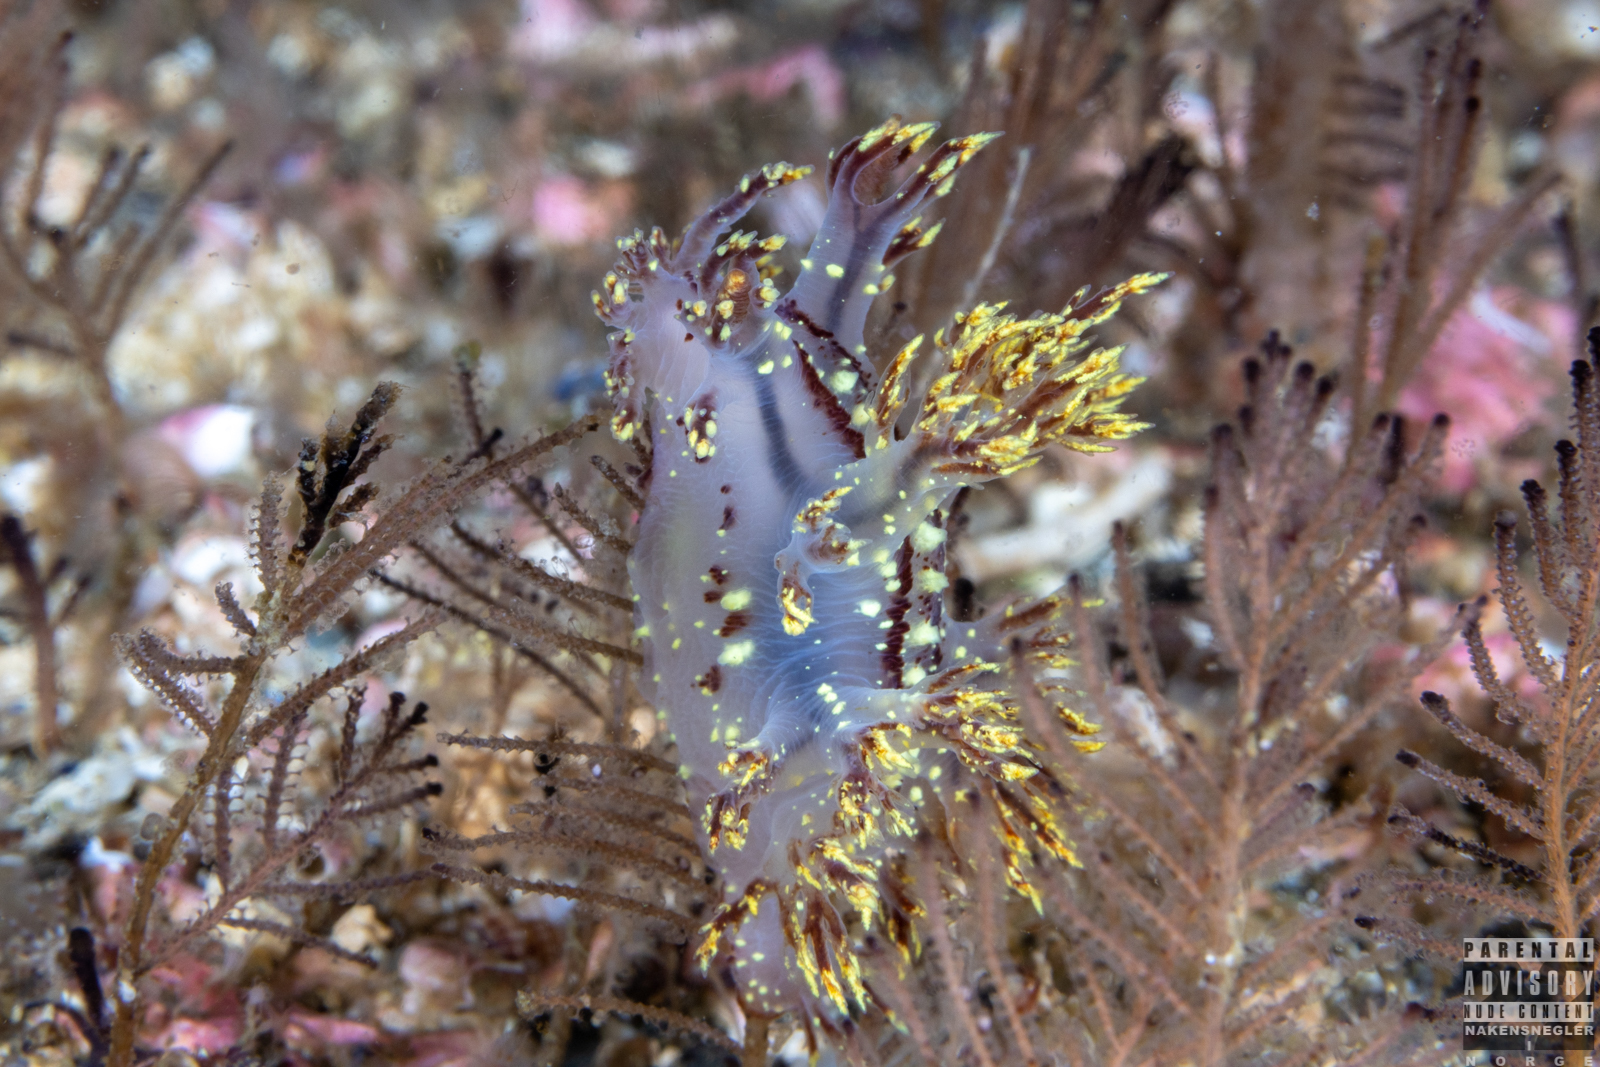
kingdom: Animalia
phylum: Mollusca
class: Gastropoda
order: Nudibranchia
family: Dendronotidae
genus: Dendronotus
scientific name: Dendronotus yrjargul
